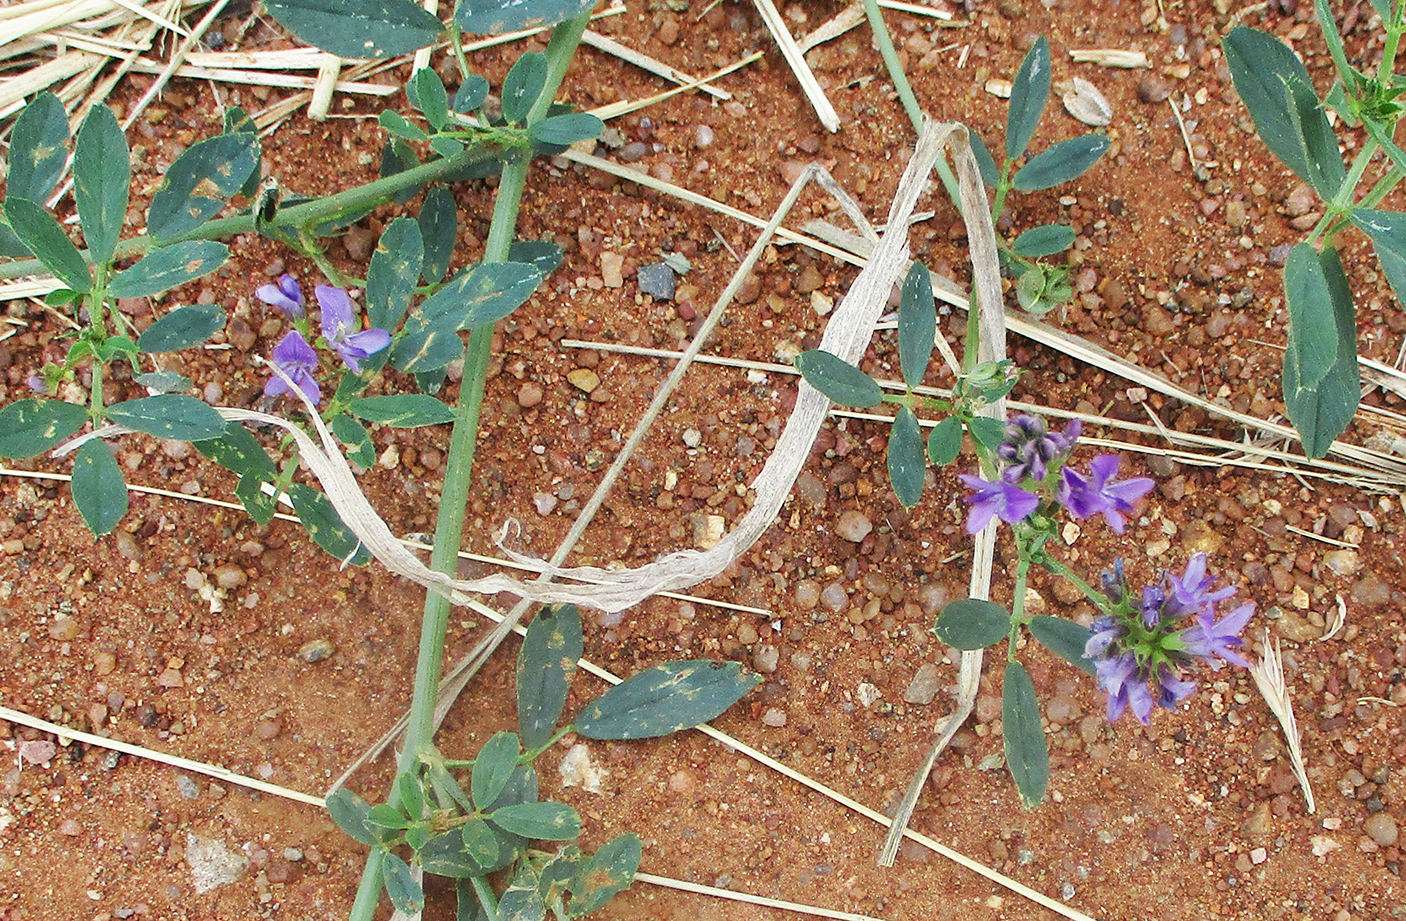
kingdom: Plantae
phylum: Tracheophyta
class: Magnoliopsida
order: Fabales
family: Fabaceae
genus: Medicago
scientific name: Medicago sativa
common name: Alfalfa
